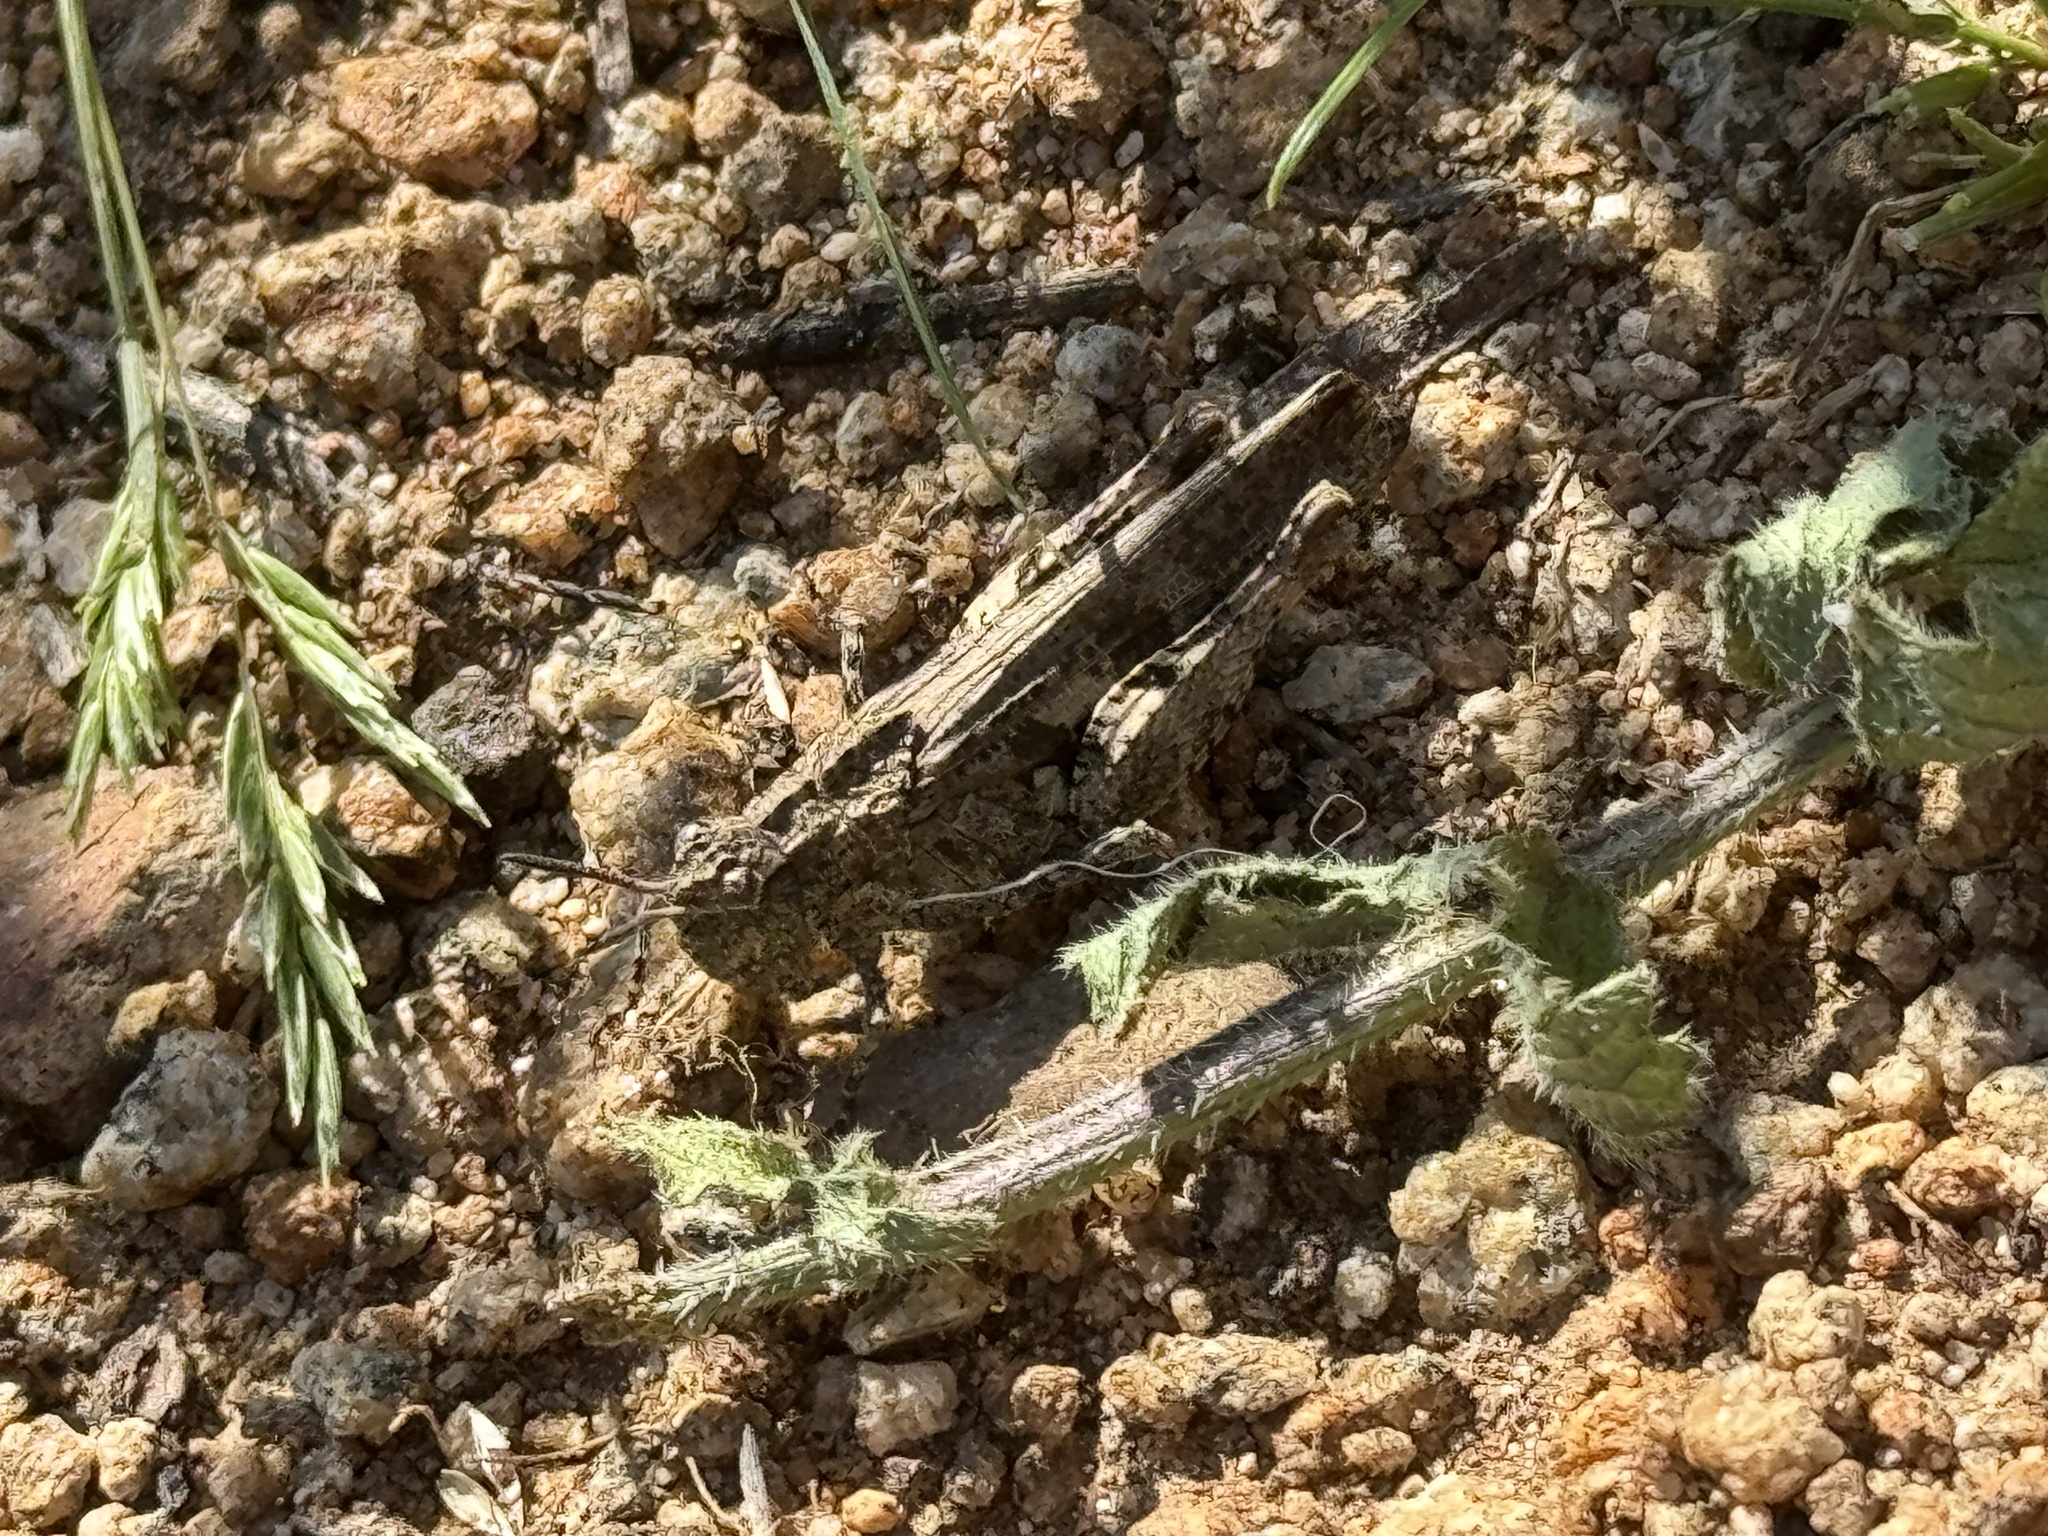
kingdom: Animalia
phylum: Arthropoda
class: Insecta
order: Orthoptera
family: Acrididae
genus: Chimarocephala
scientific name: Chimarocephala pacifica
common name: Painted meadow grasshopper
